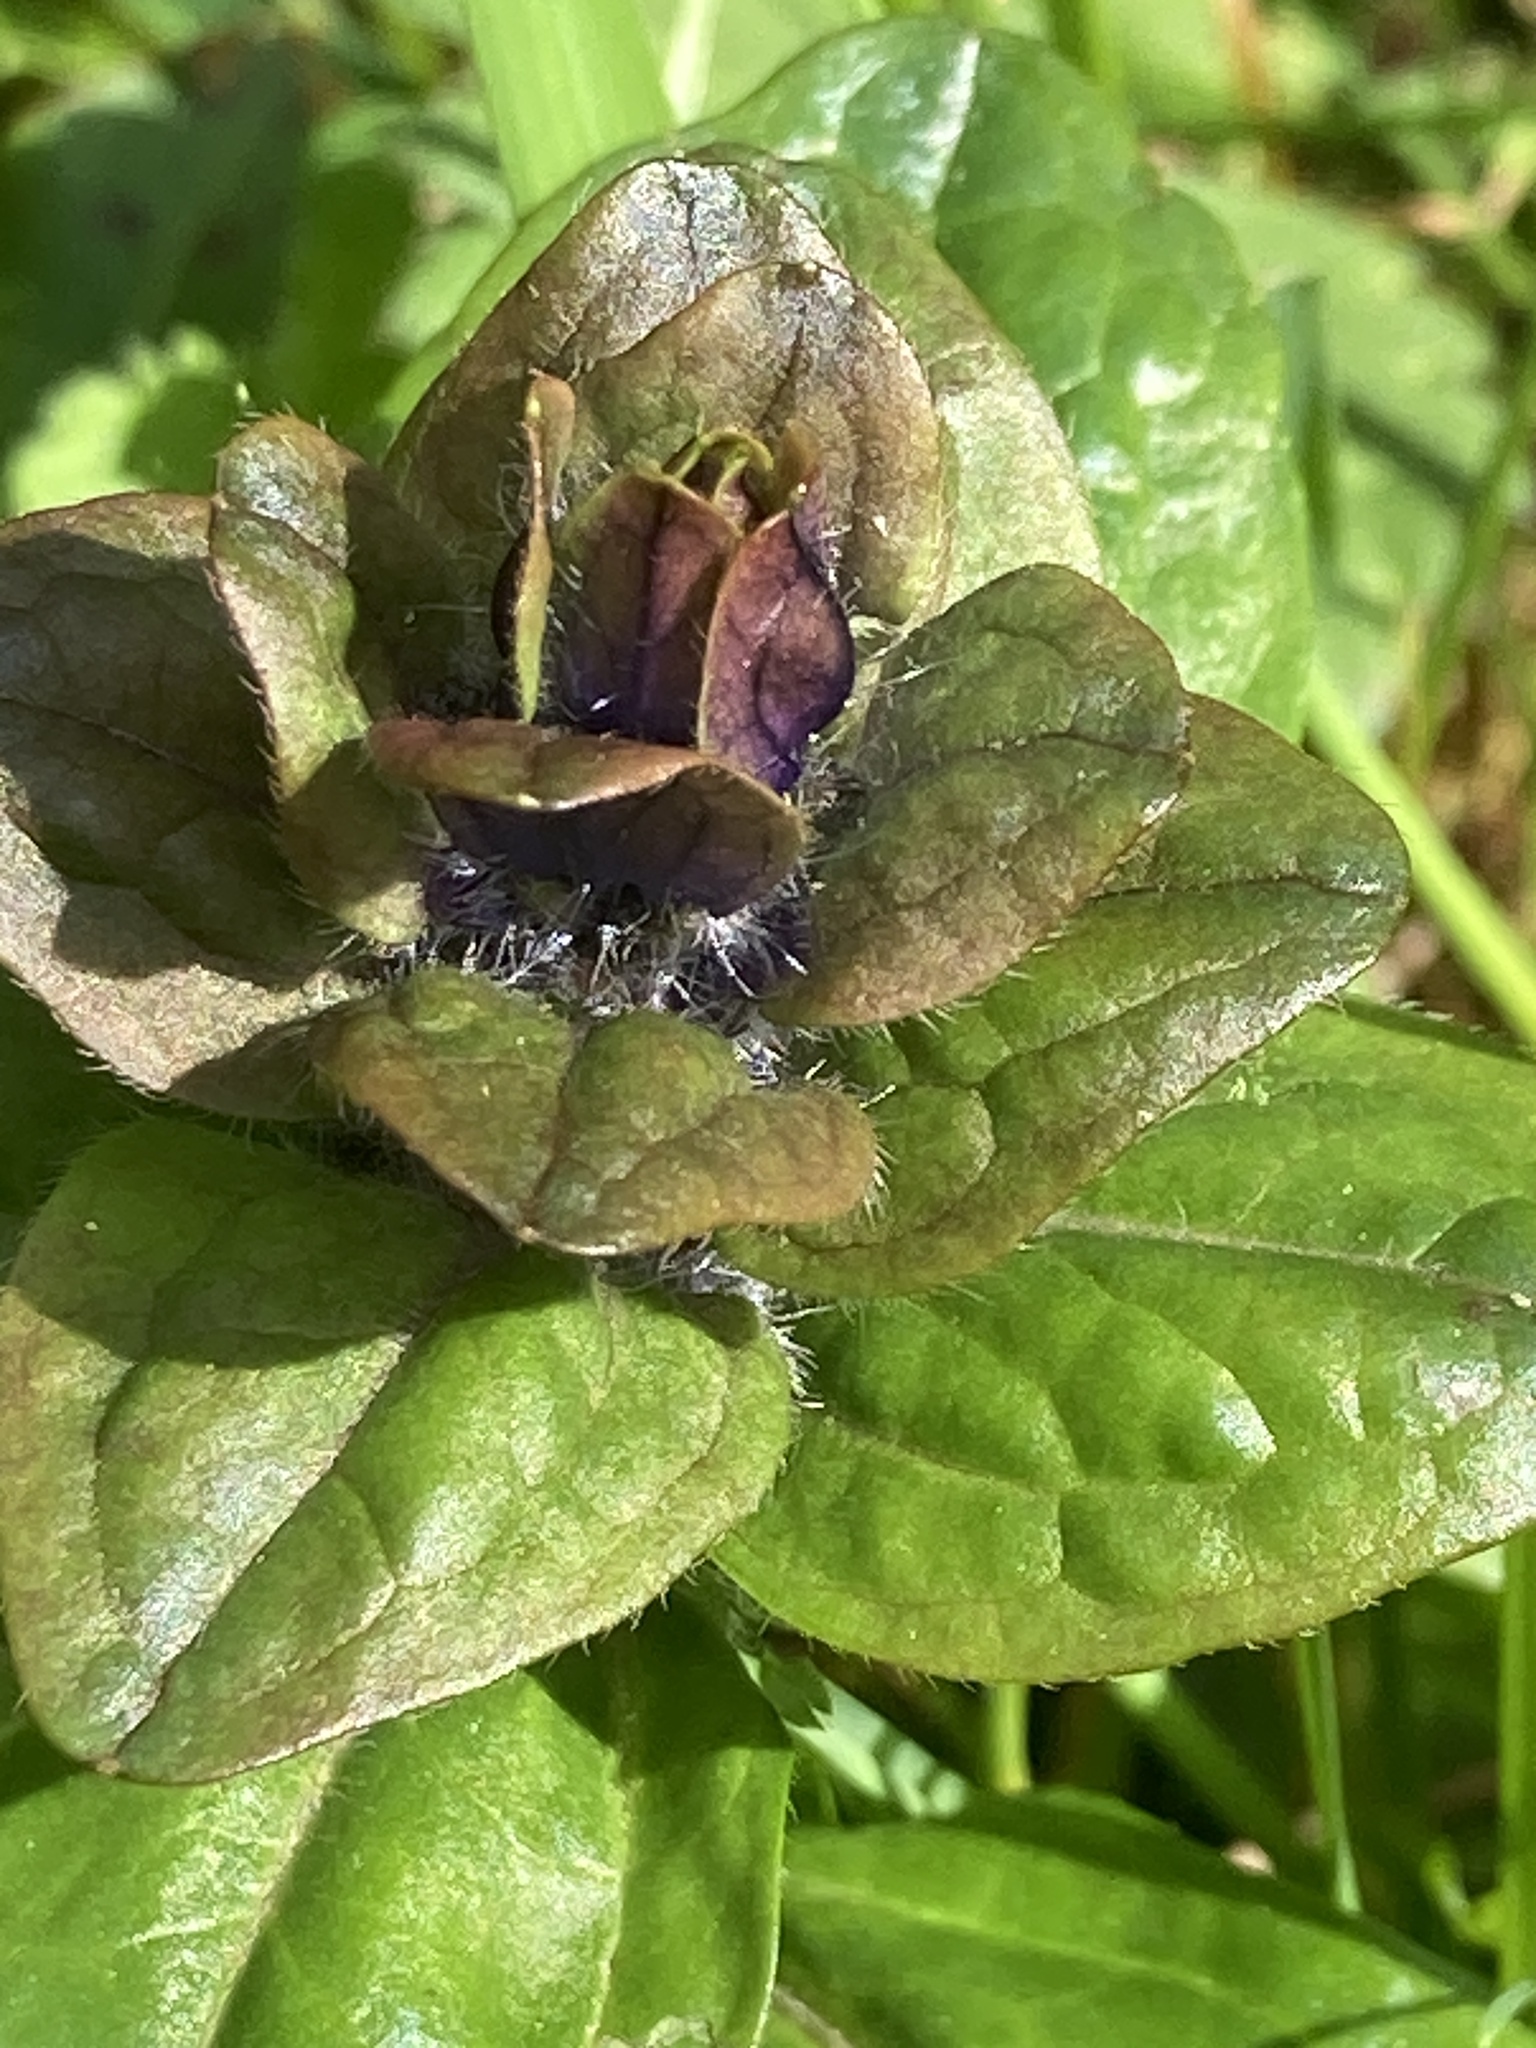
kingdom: Plantae
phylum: Tracheophyta
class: Magnoliopsida
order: Lamiales
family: Lamiaceae
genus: Ajuga
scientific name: Ajuga reptans
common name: Bugle
